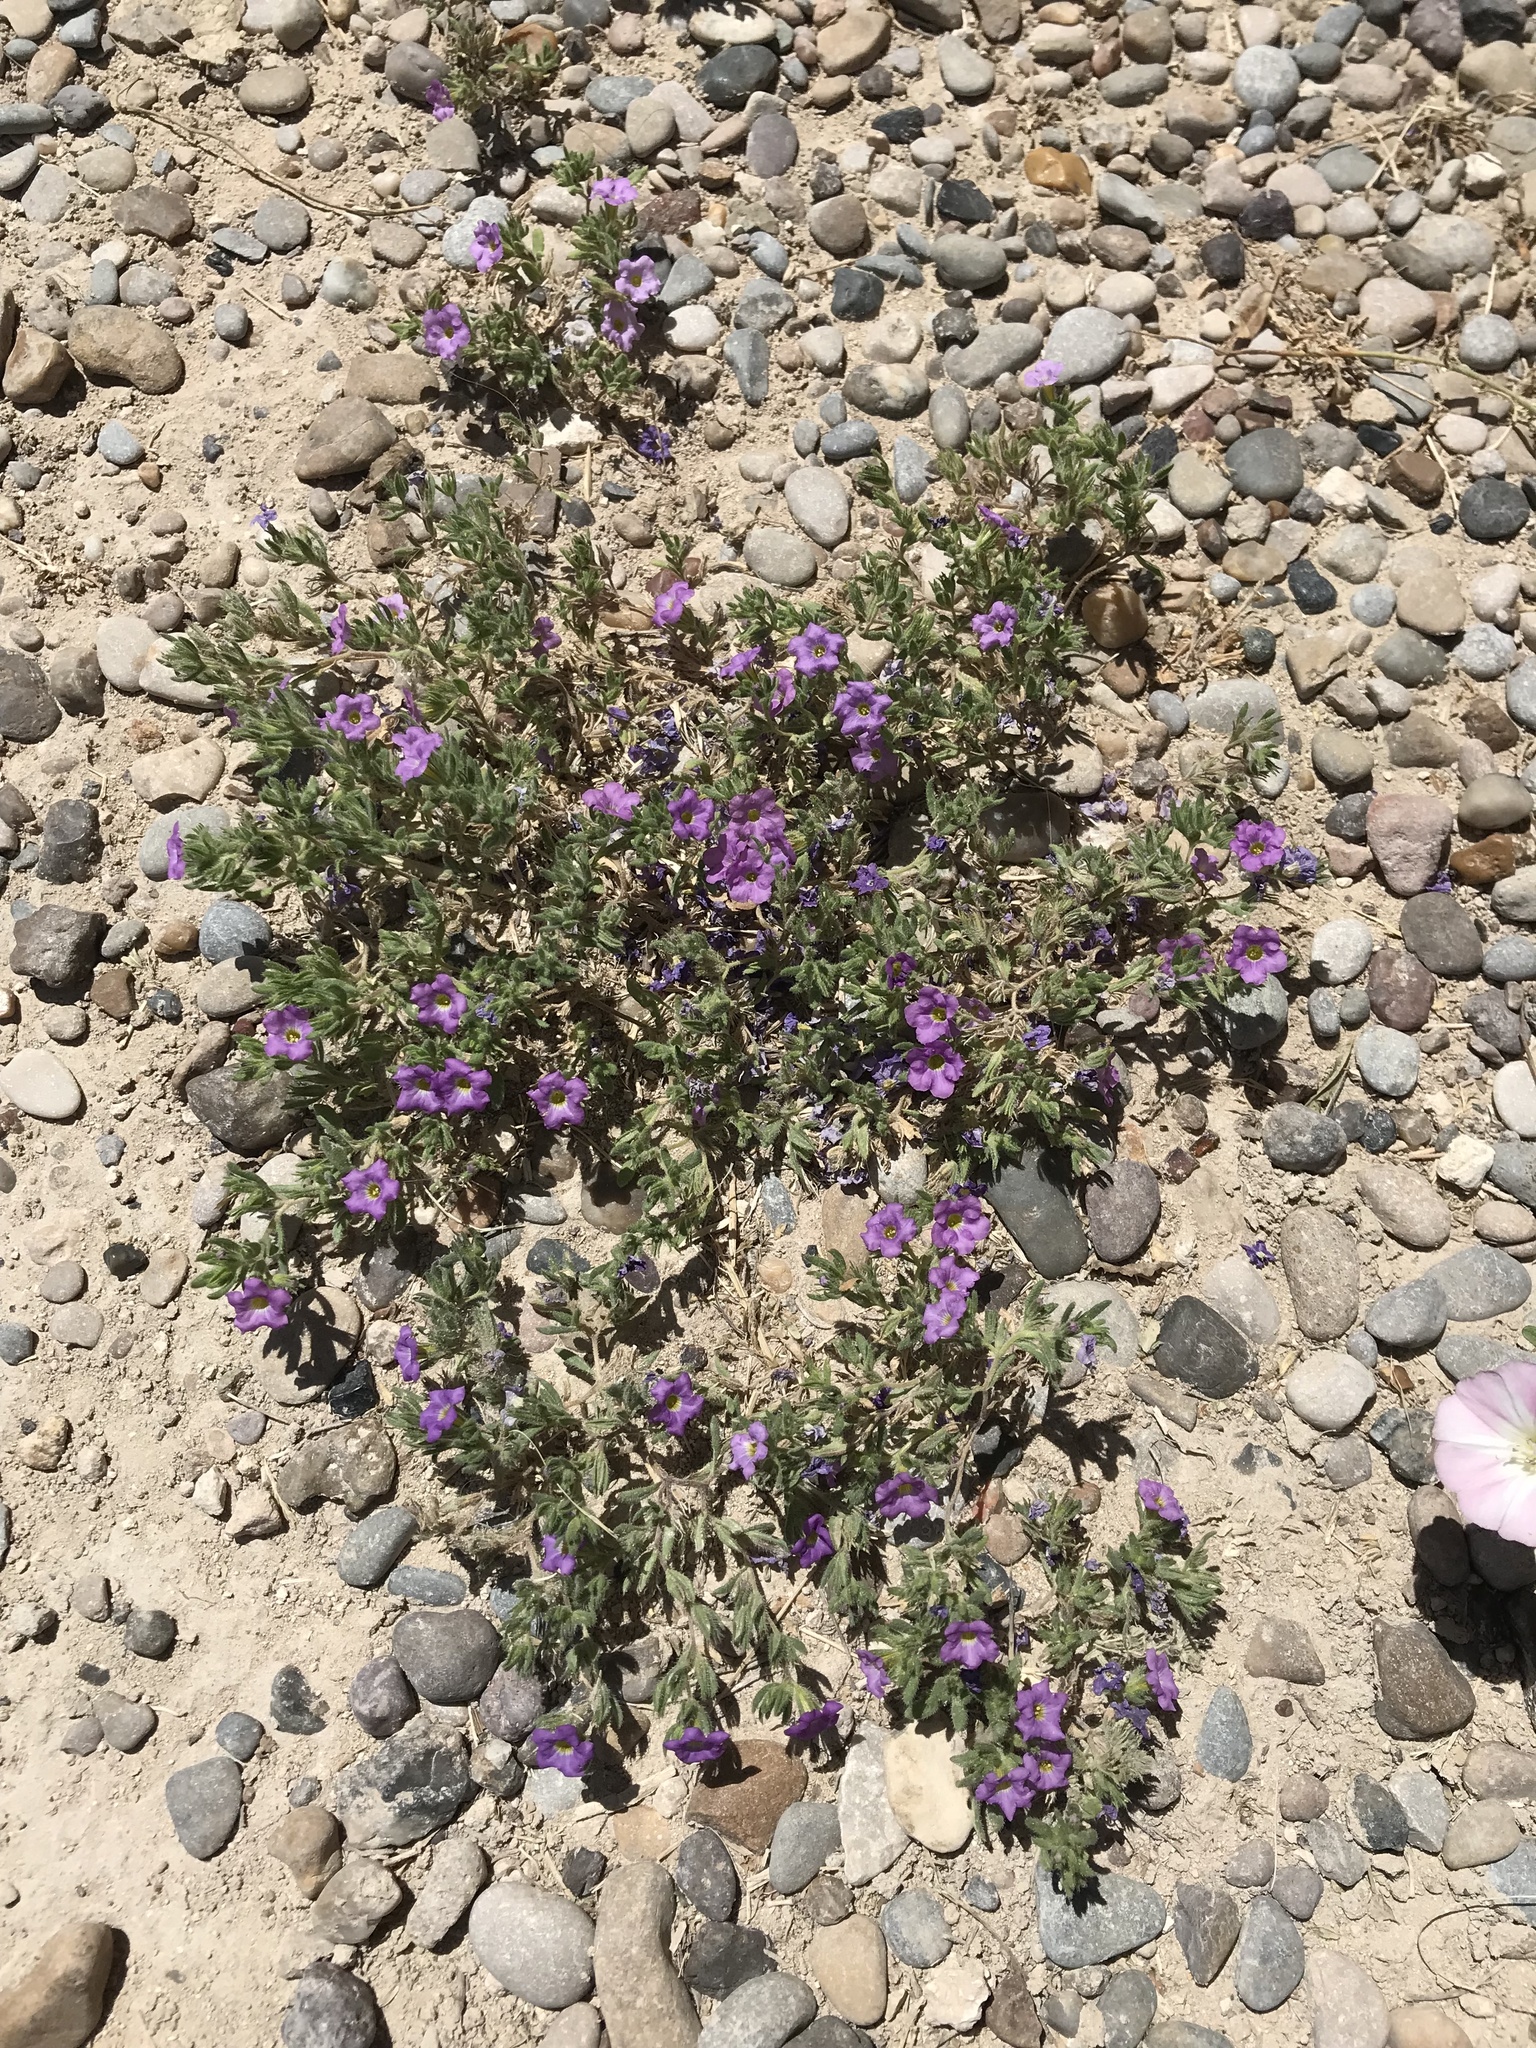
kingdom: Plantae
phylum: Tracheophyta
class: Magnoliopsida
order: Boraginales
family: Namaceae
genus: Nama
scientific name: Nama hispida
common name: Bristly nama
